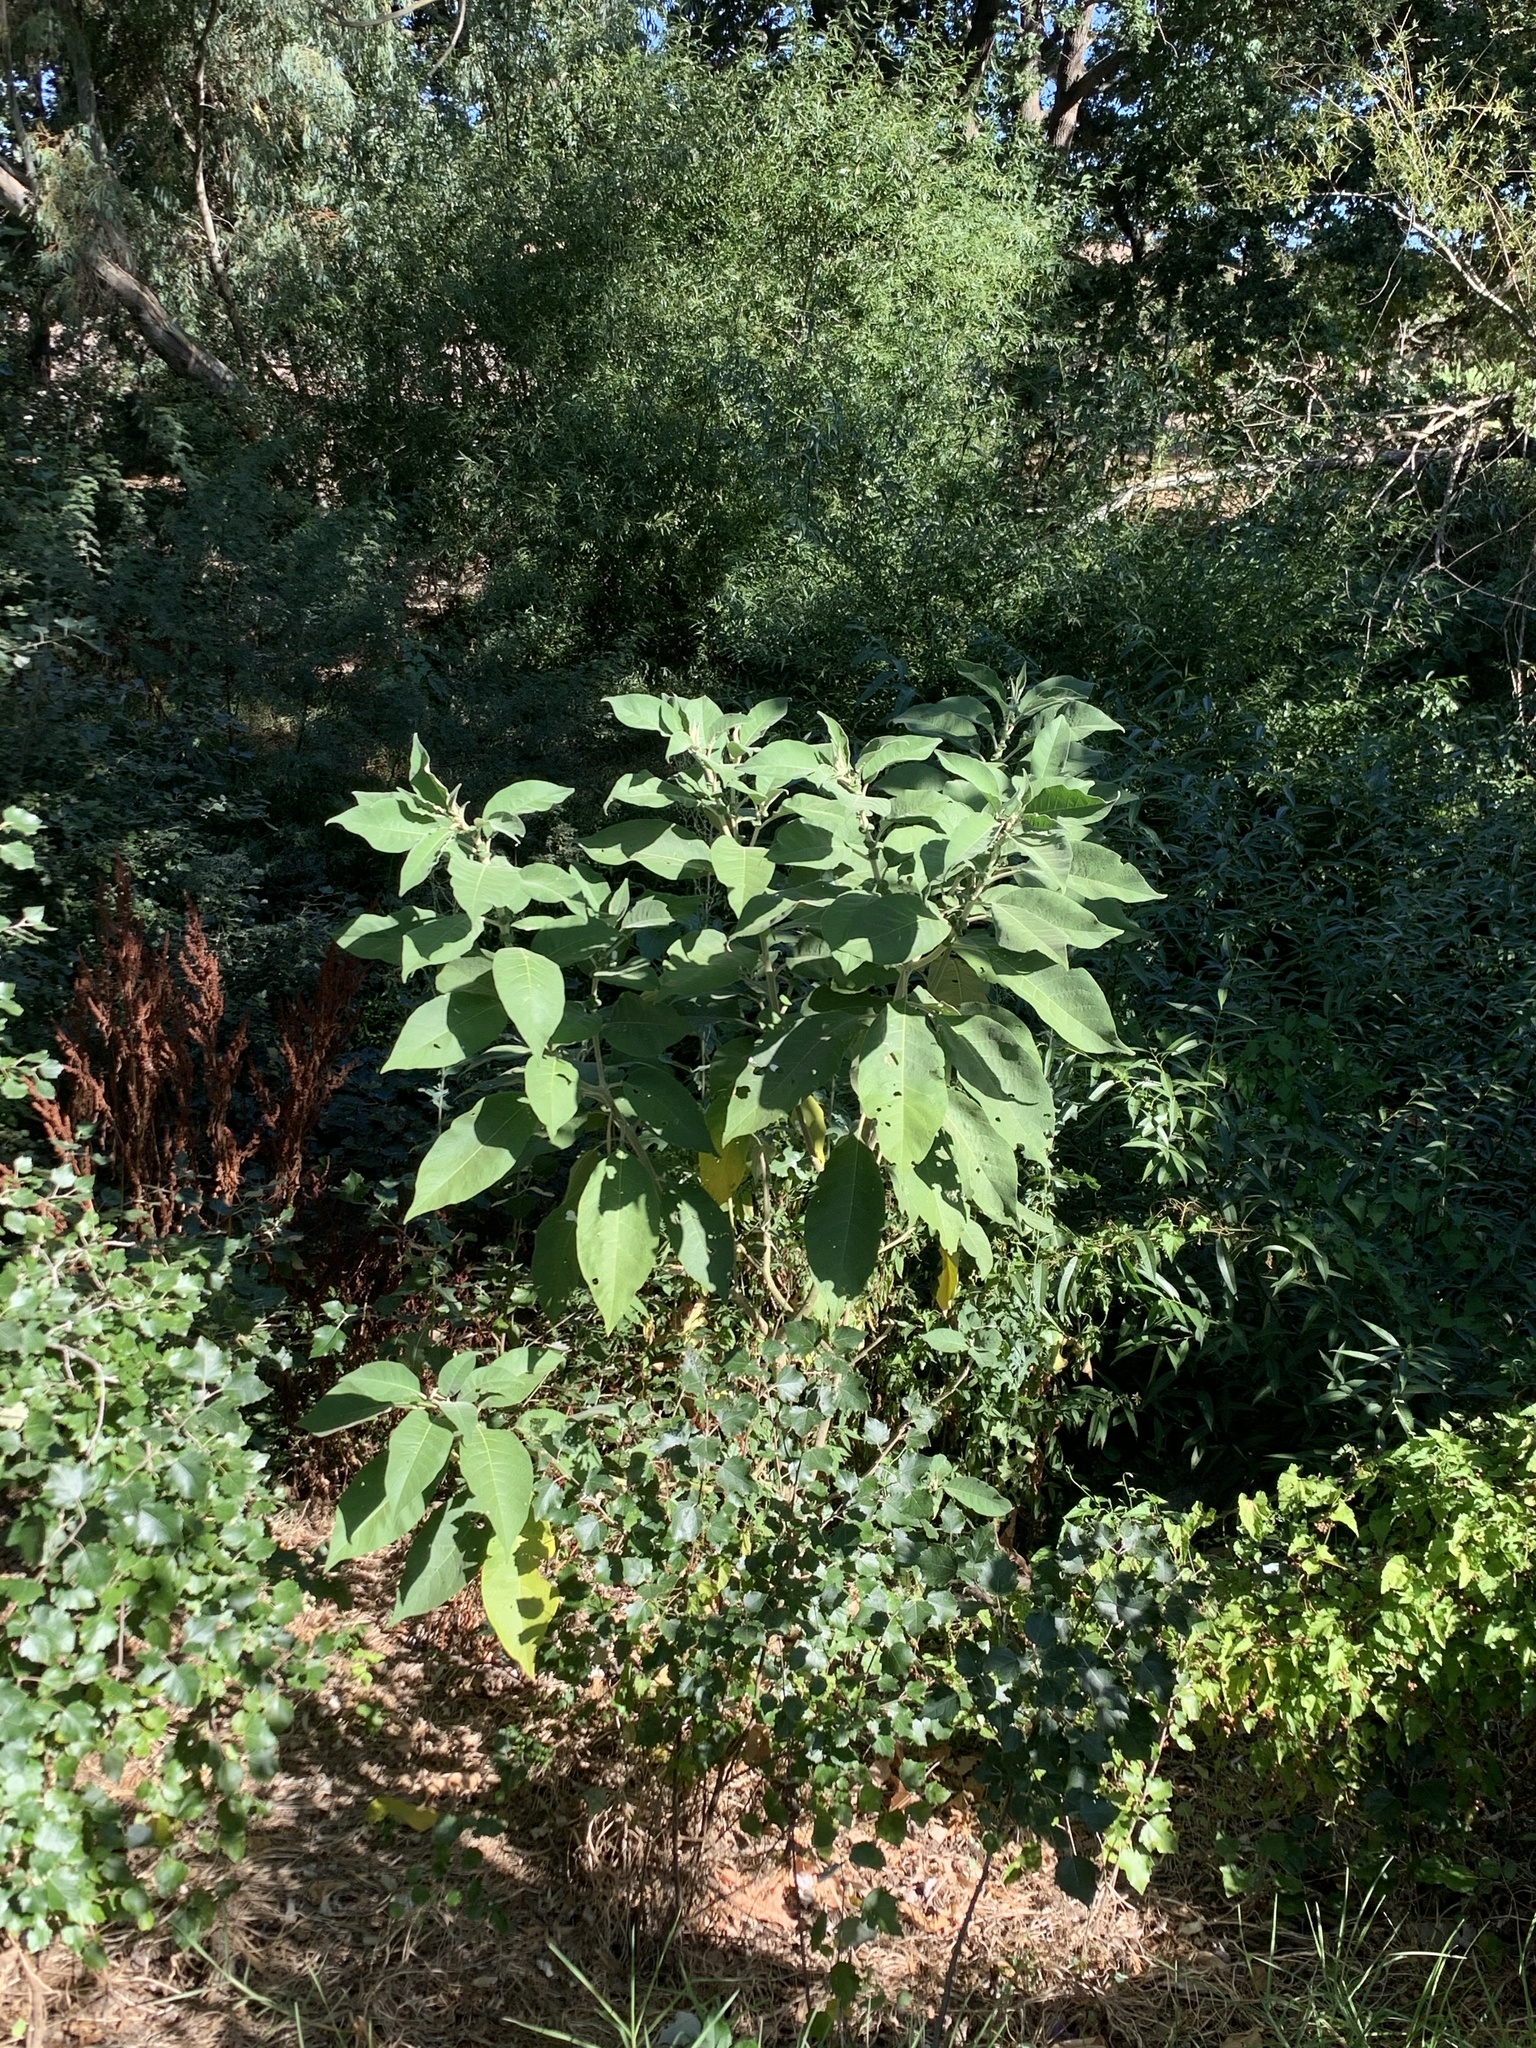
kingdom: Plantae
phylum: Tracheophyta
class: Magnoliopsida
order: Solanales
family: Solanaceae
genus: Solanum
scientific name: Solanum mauritianum
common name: Earleaf nightshade
